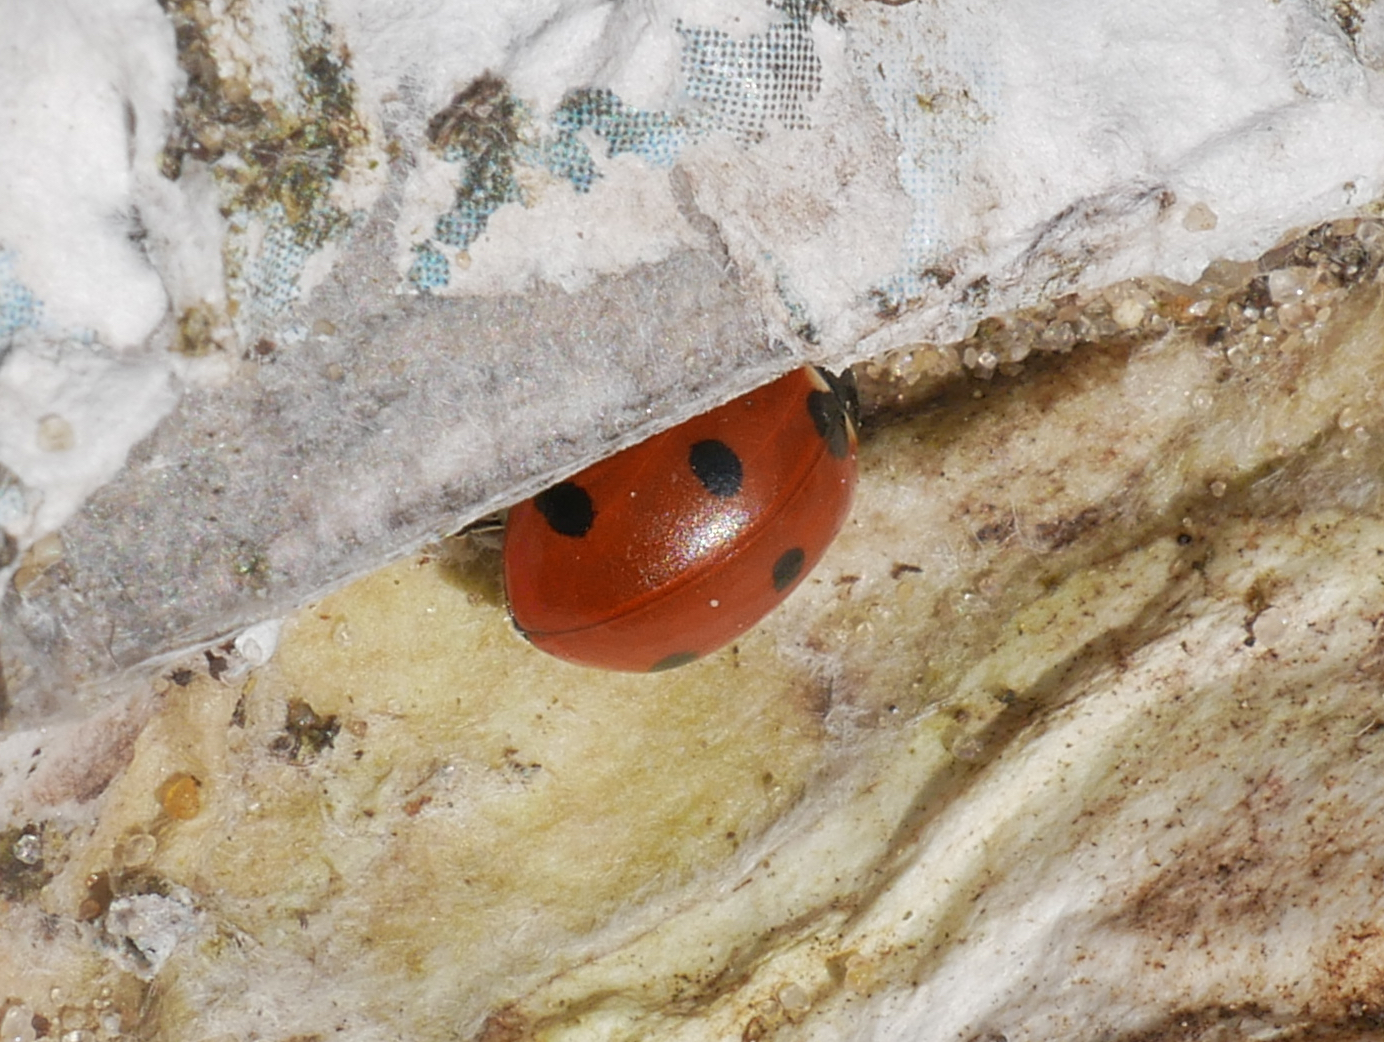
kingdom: Animalia
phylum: Arthropoda
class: Insecta
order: Coleoptera
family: Coccinellidae
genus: Coccinella
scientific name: Coccinella septempunctata
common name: Sevenspotted lady beetle
